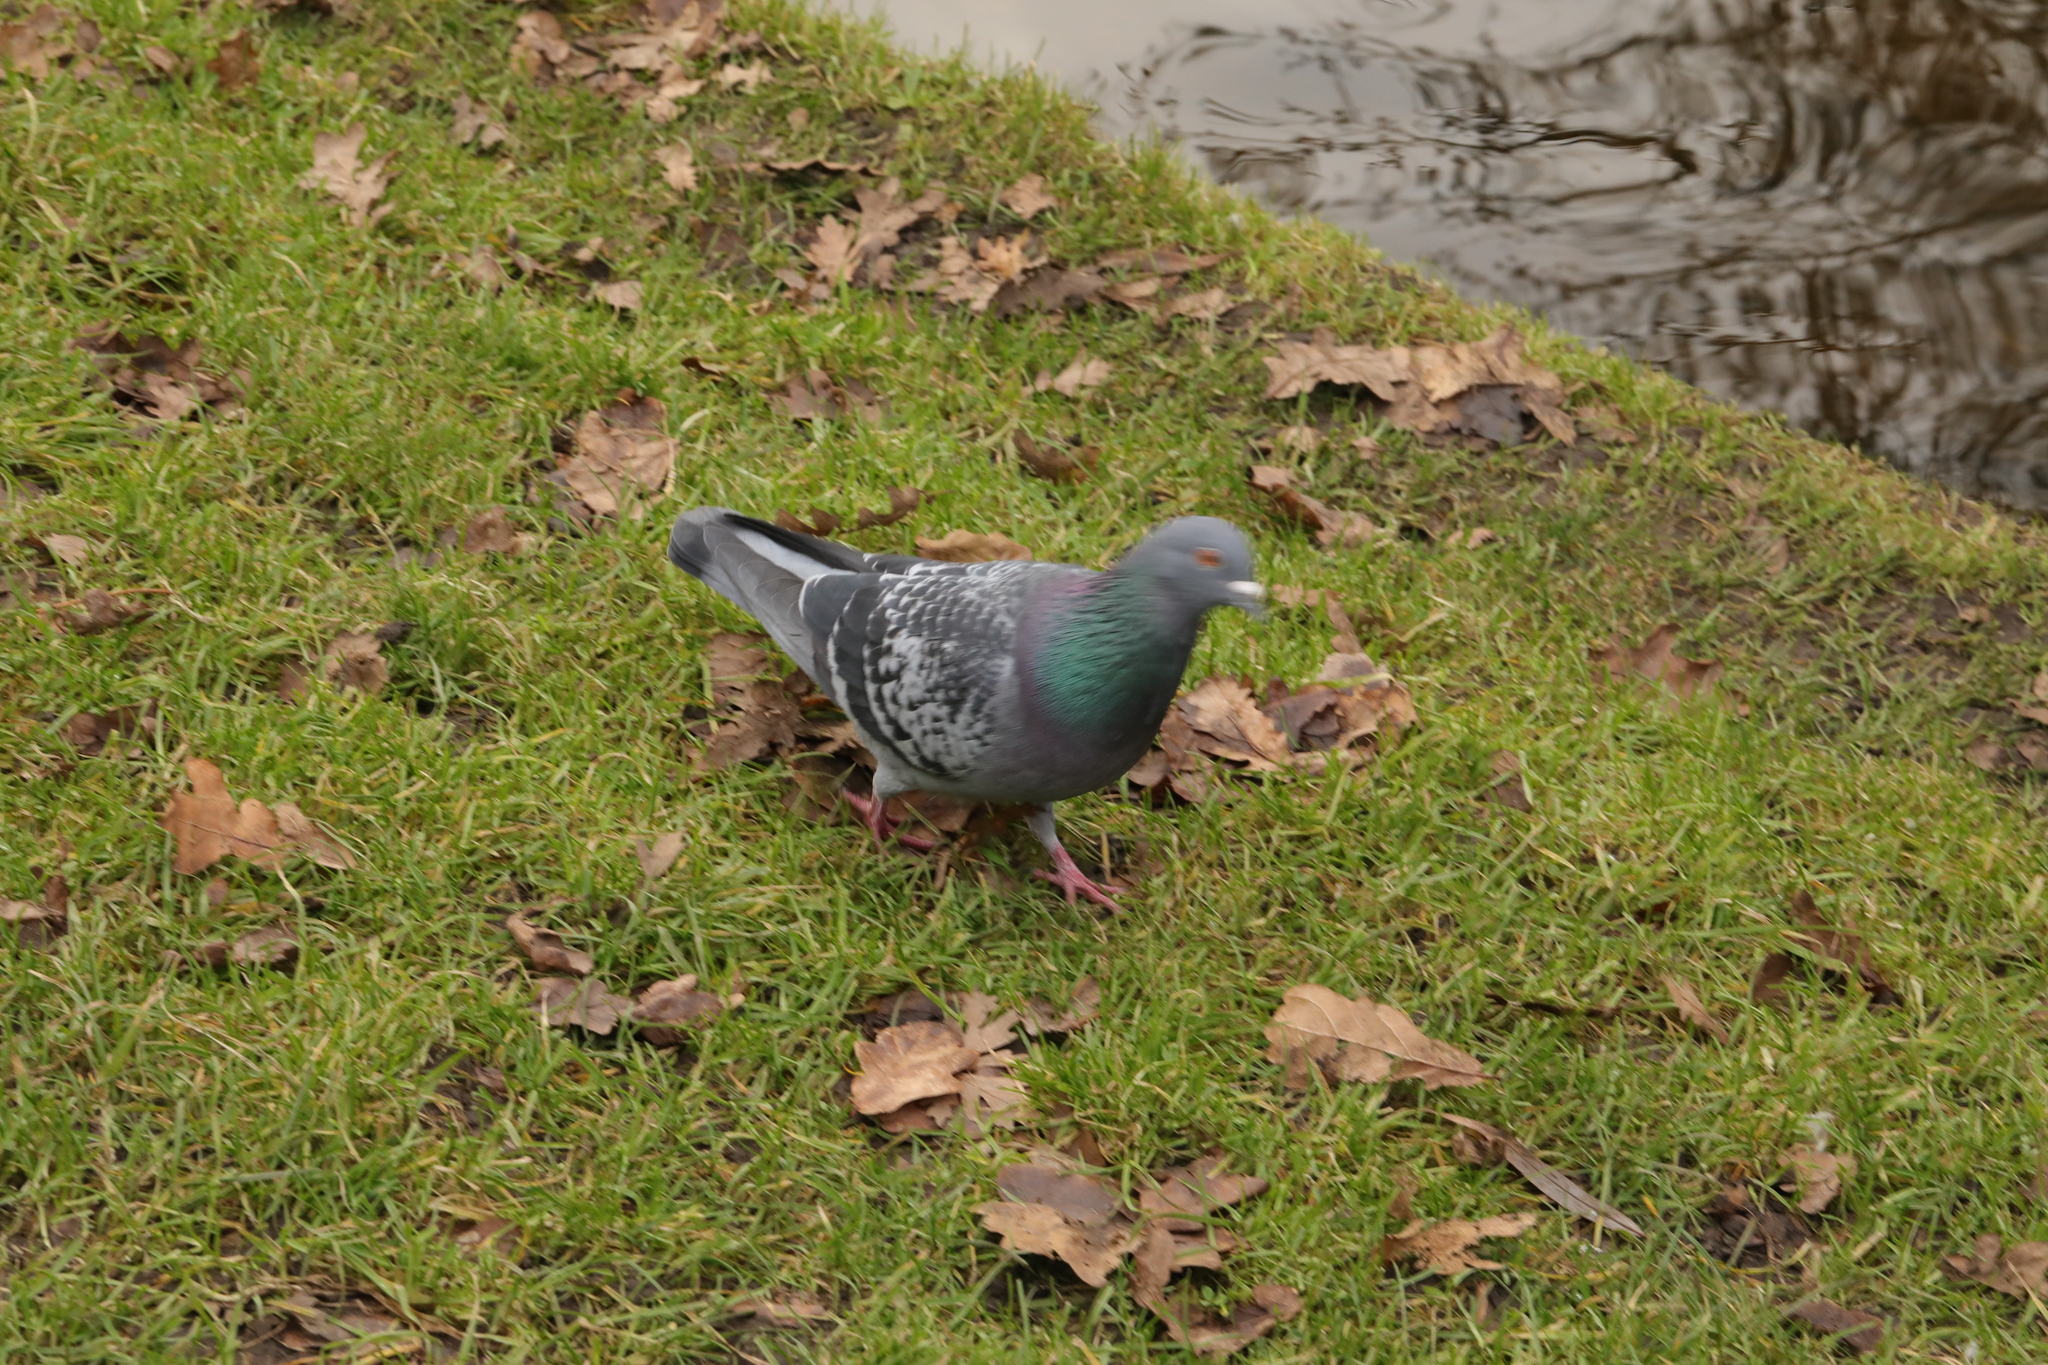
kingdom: Animalia
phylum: Chordata
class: Aves
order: Columbiformes
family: Columbidae
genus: Columba
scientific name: Columba livia
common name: Rock pigeon
